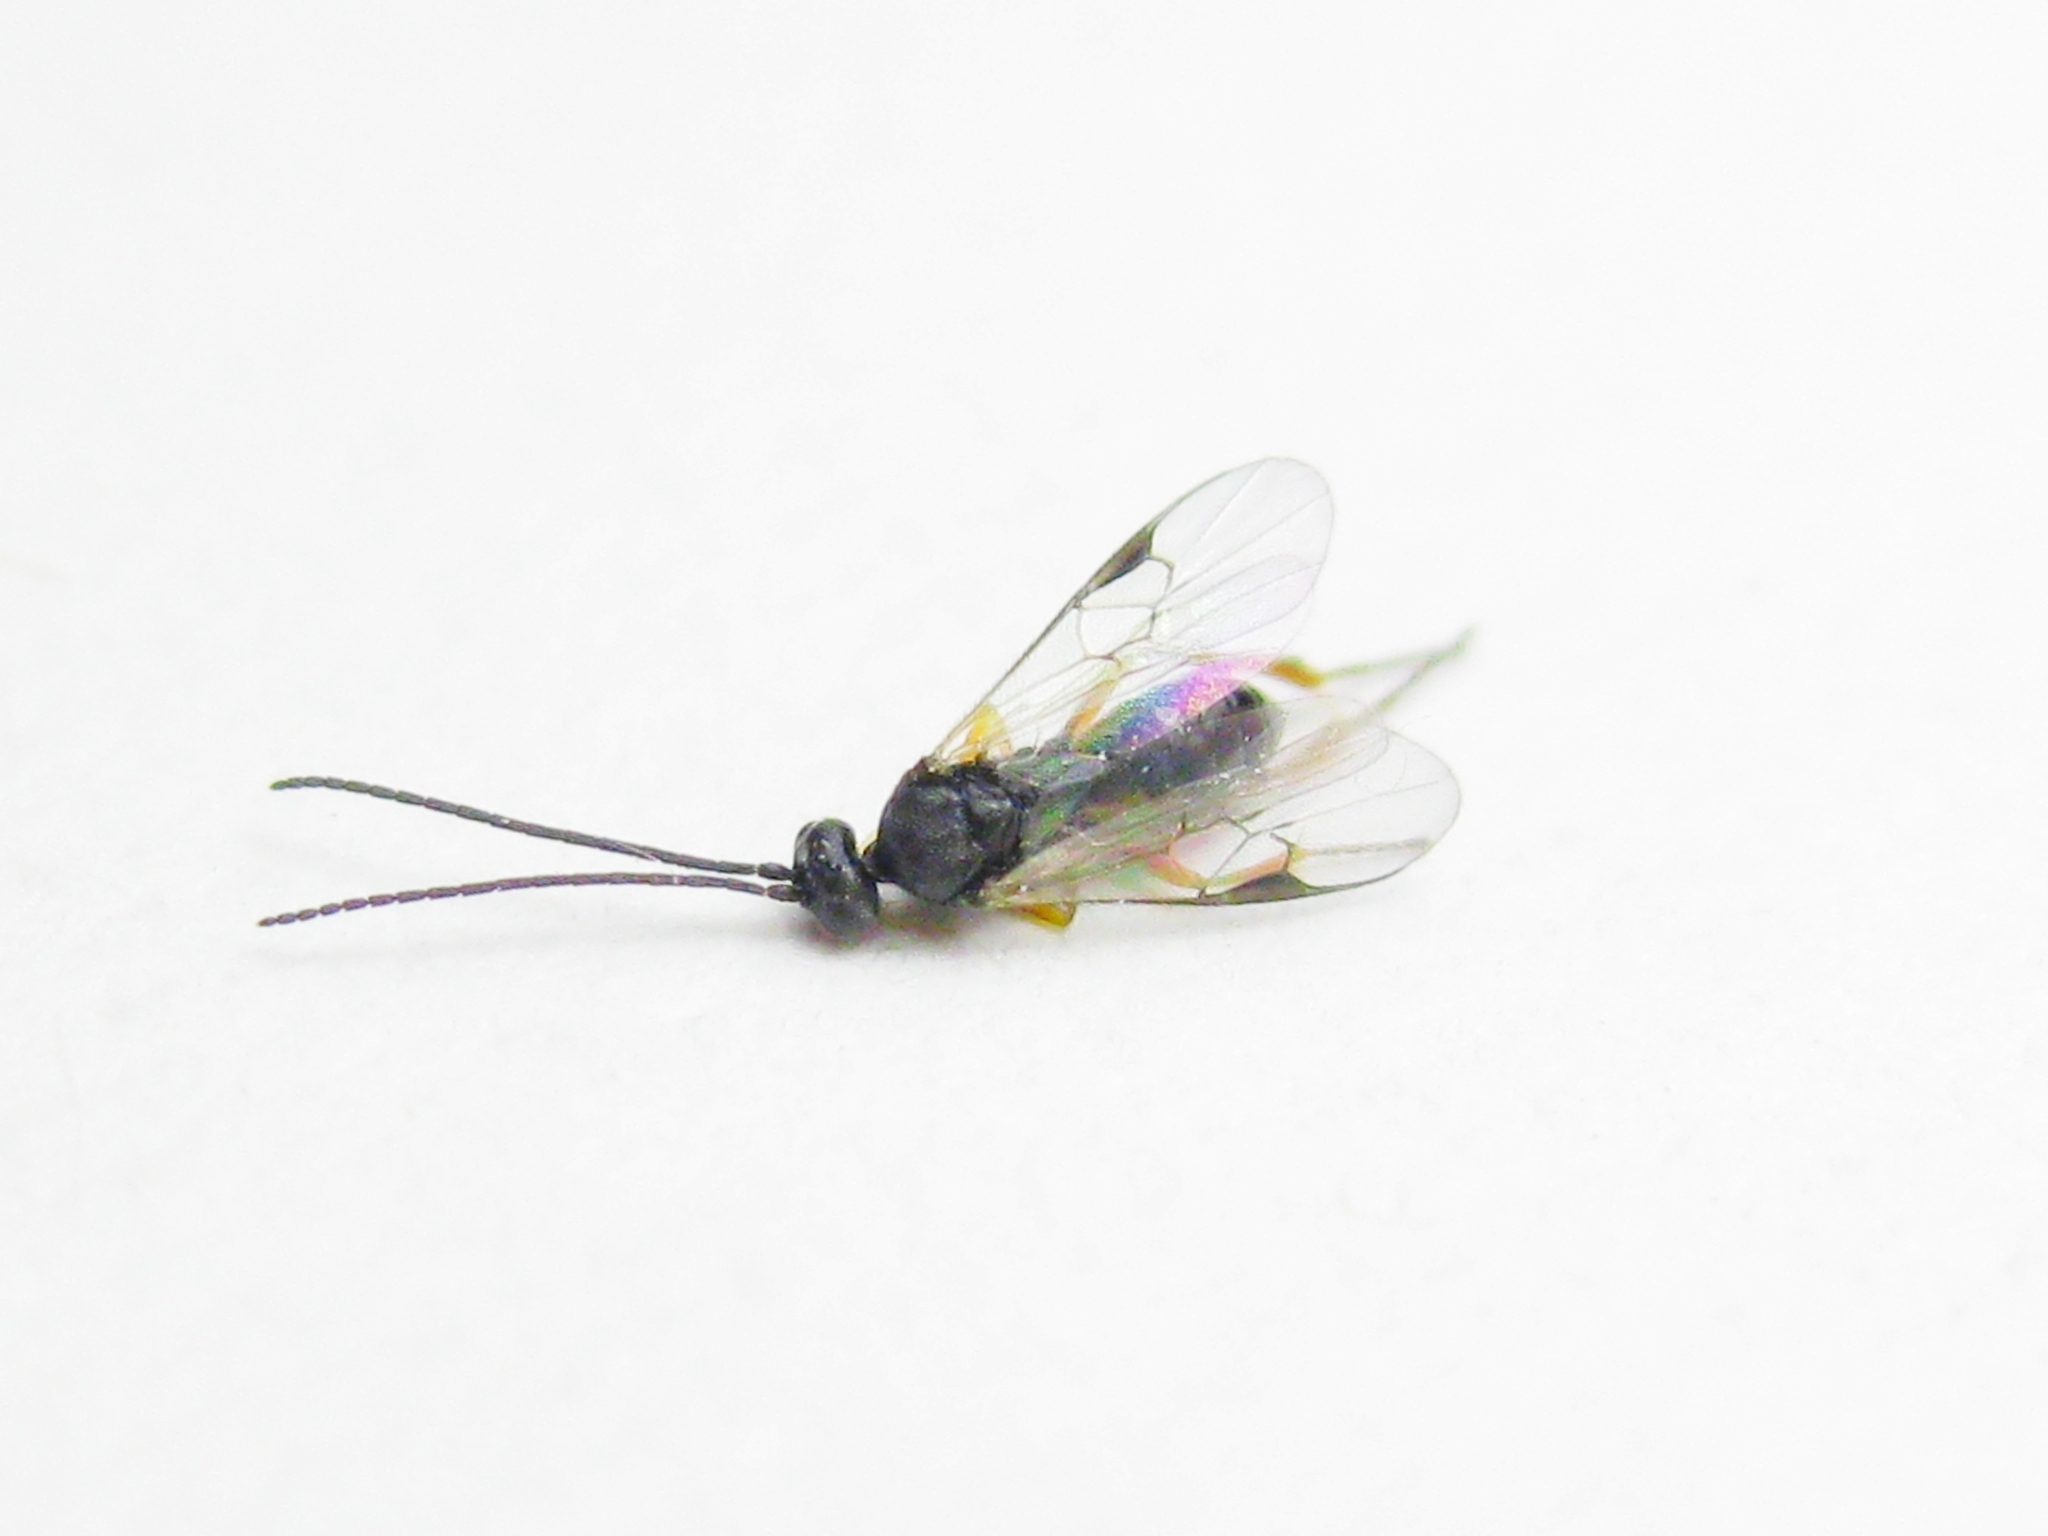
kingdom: Animalia
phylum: Arthropoda
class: Insecta
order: Hymenoptera
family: Braconidae
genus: Cotesia
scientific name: Cotesia
